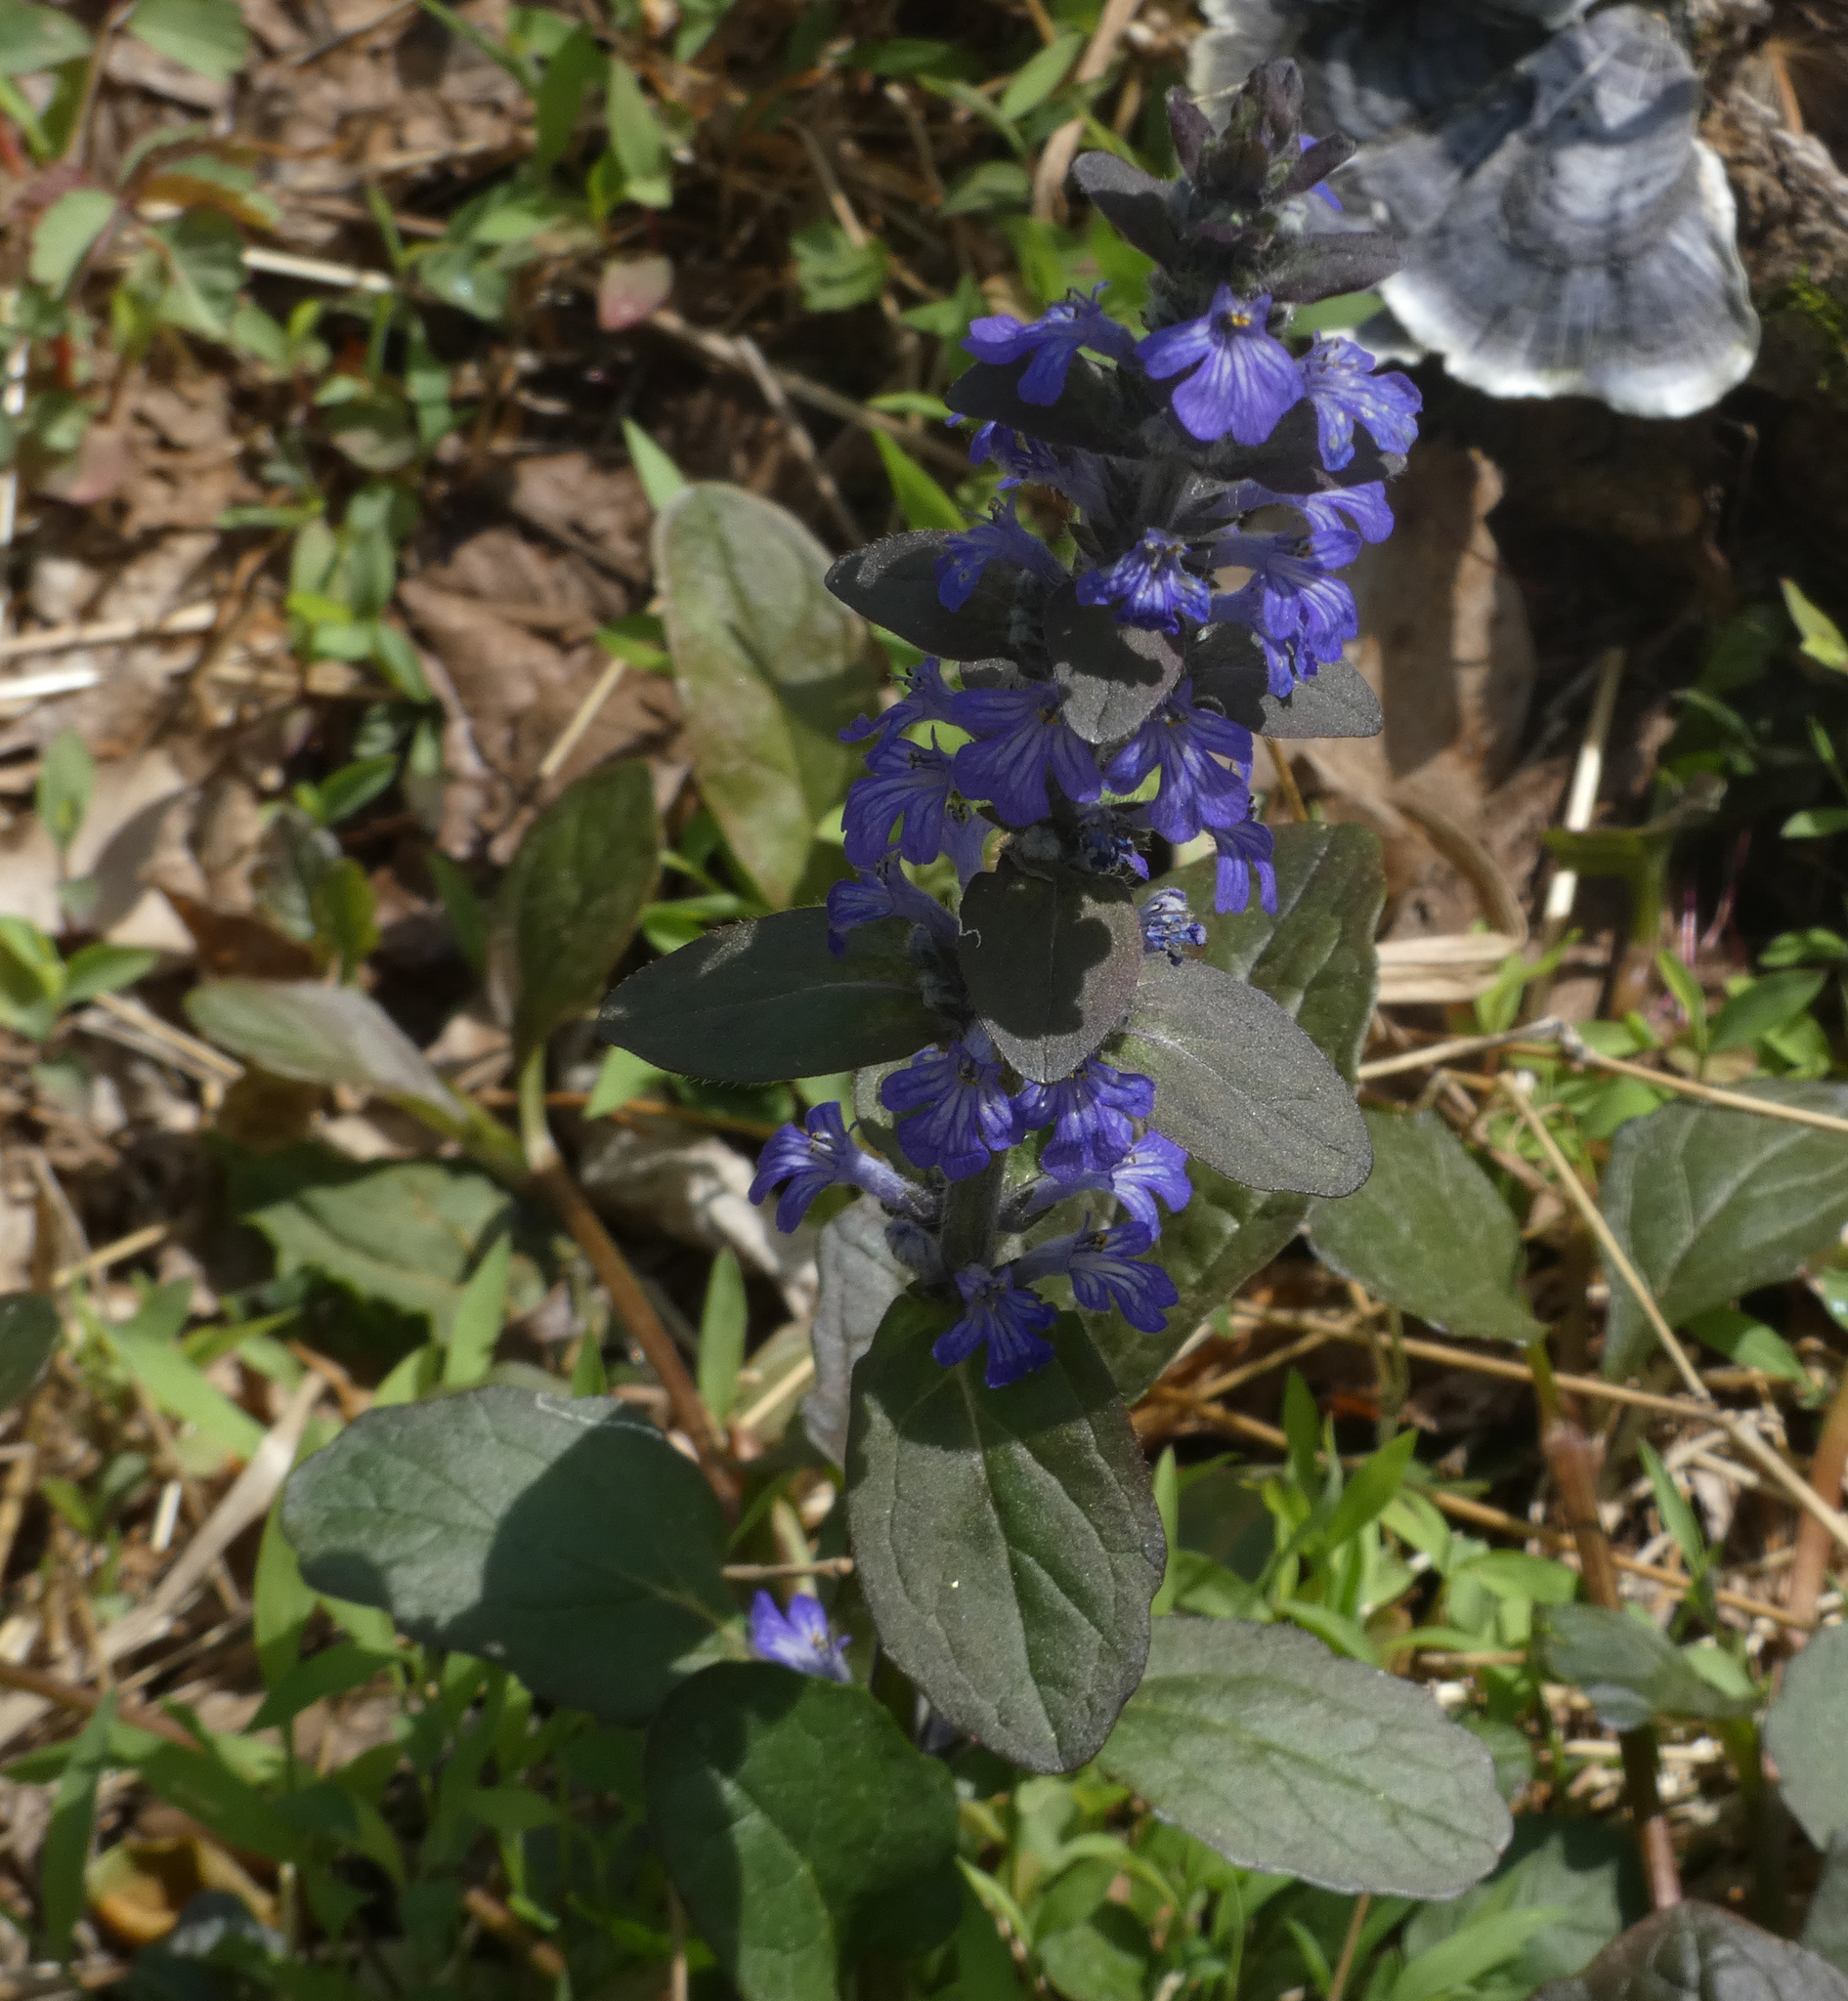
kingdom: Plantae
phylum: Tracheophyta
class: Magnoliopsida
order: Lamiales
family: Lamiaceae
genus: Ajuga
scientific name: Ajuga reptans
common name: Bugle
